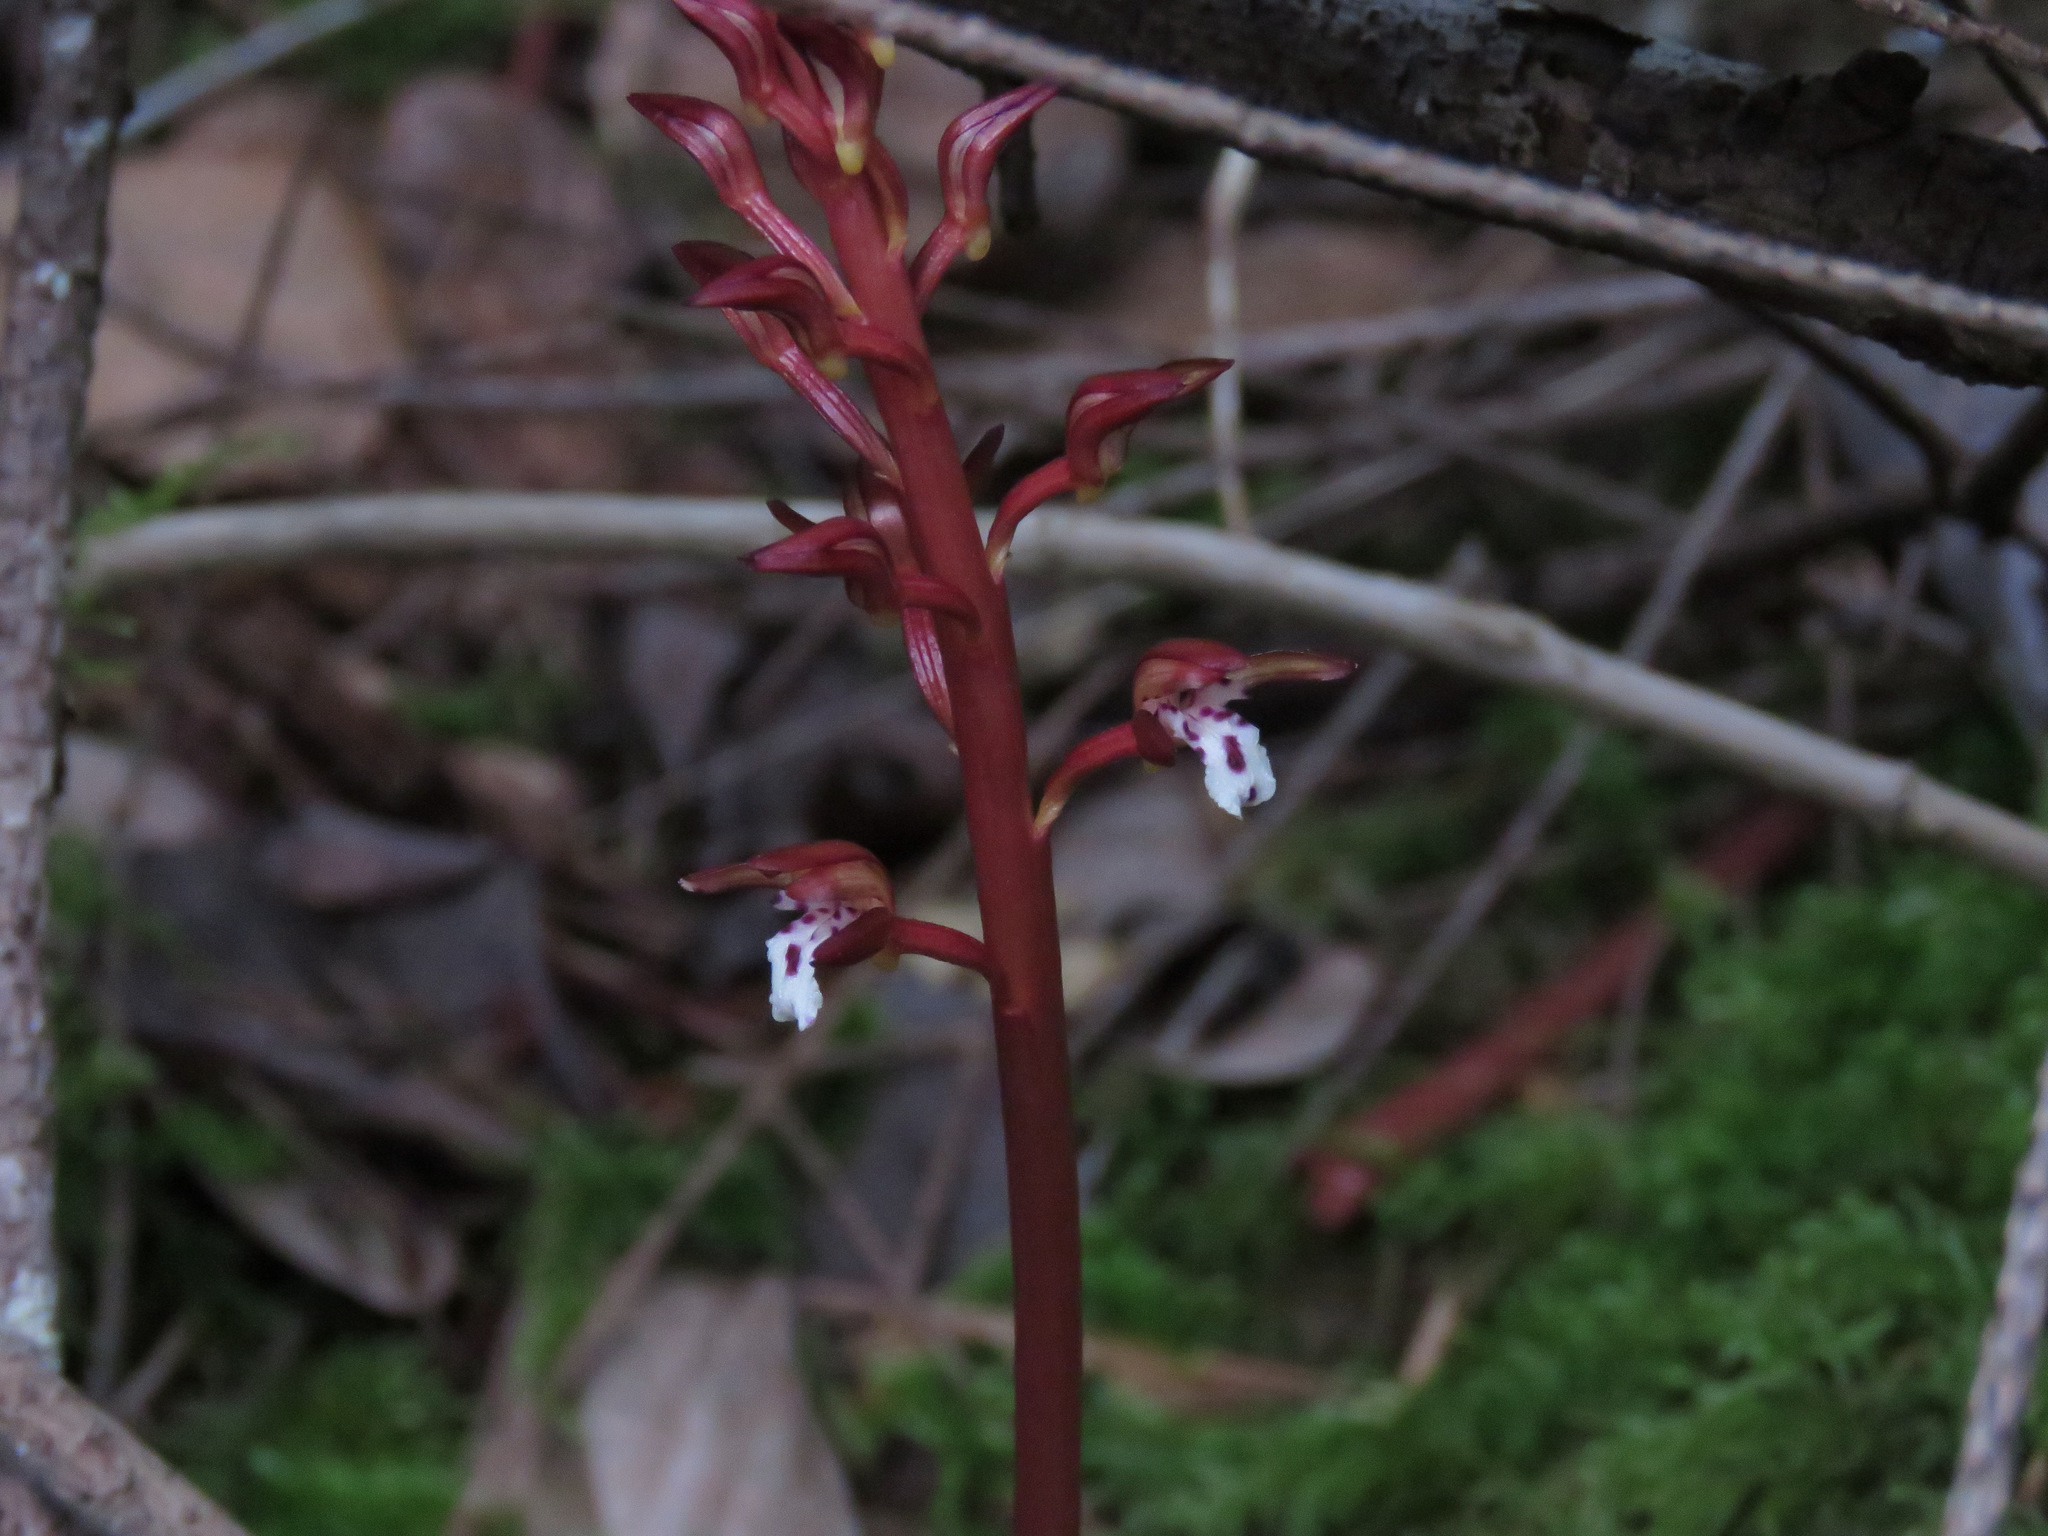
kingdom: Plantae
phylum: Tracheophyta
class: Liliopsida
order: Asparagales
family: Orchidaceae
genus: Corallorhiza
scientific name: Corallorhiza maculata
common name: Spotted coralroot
